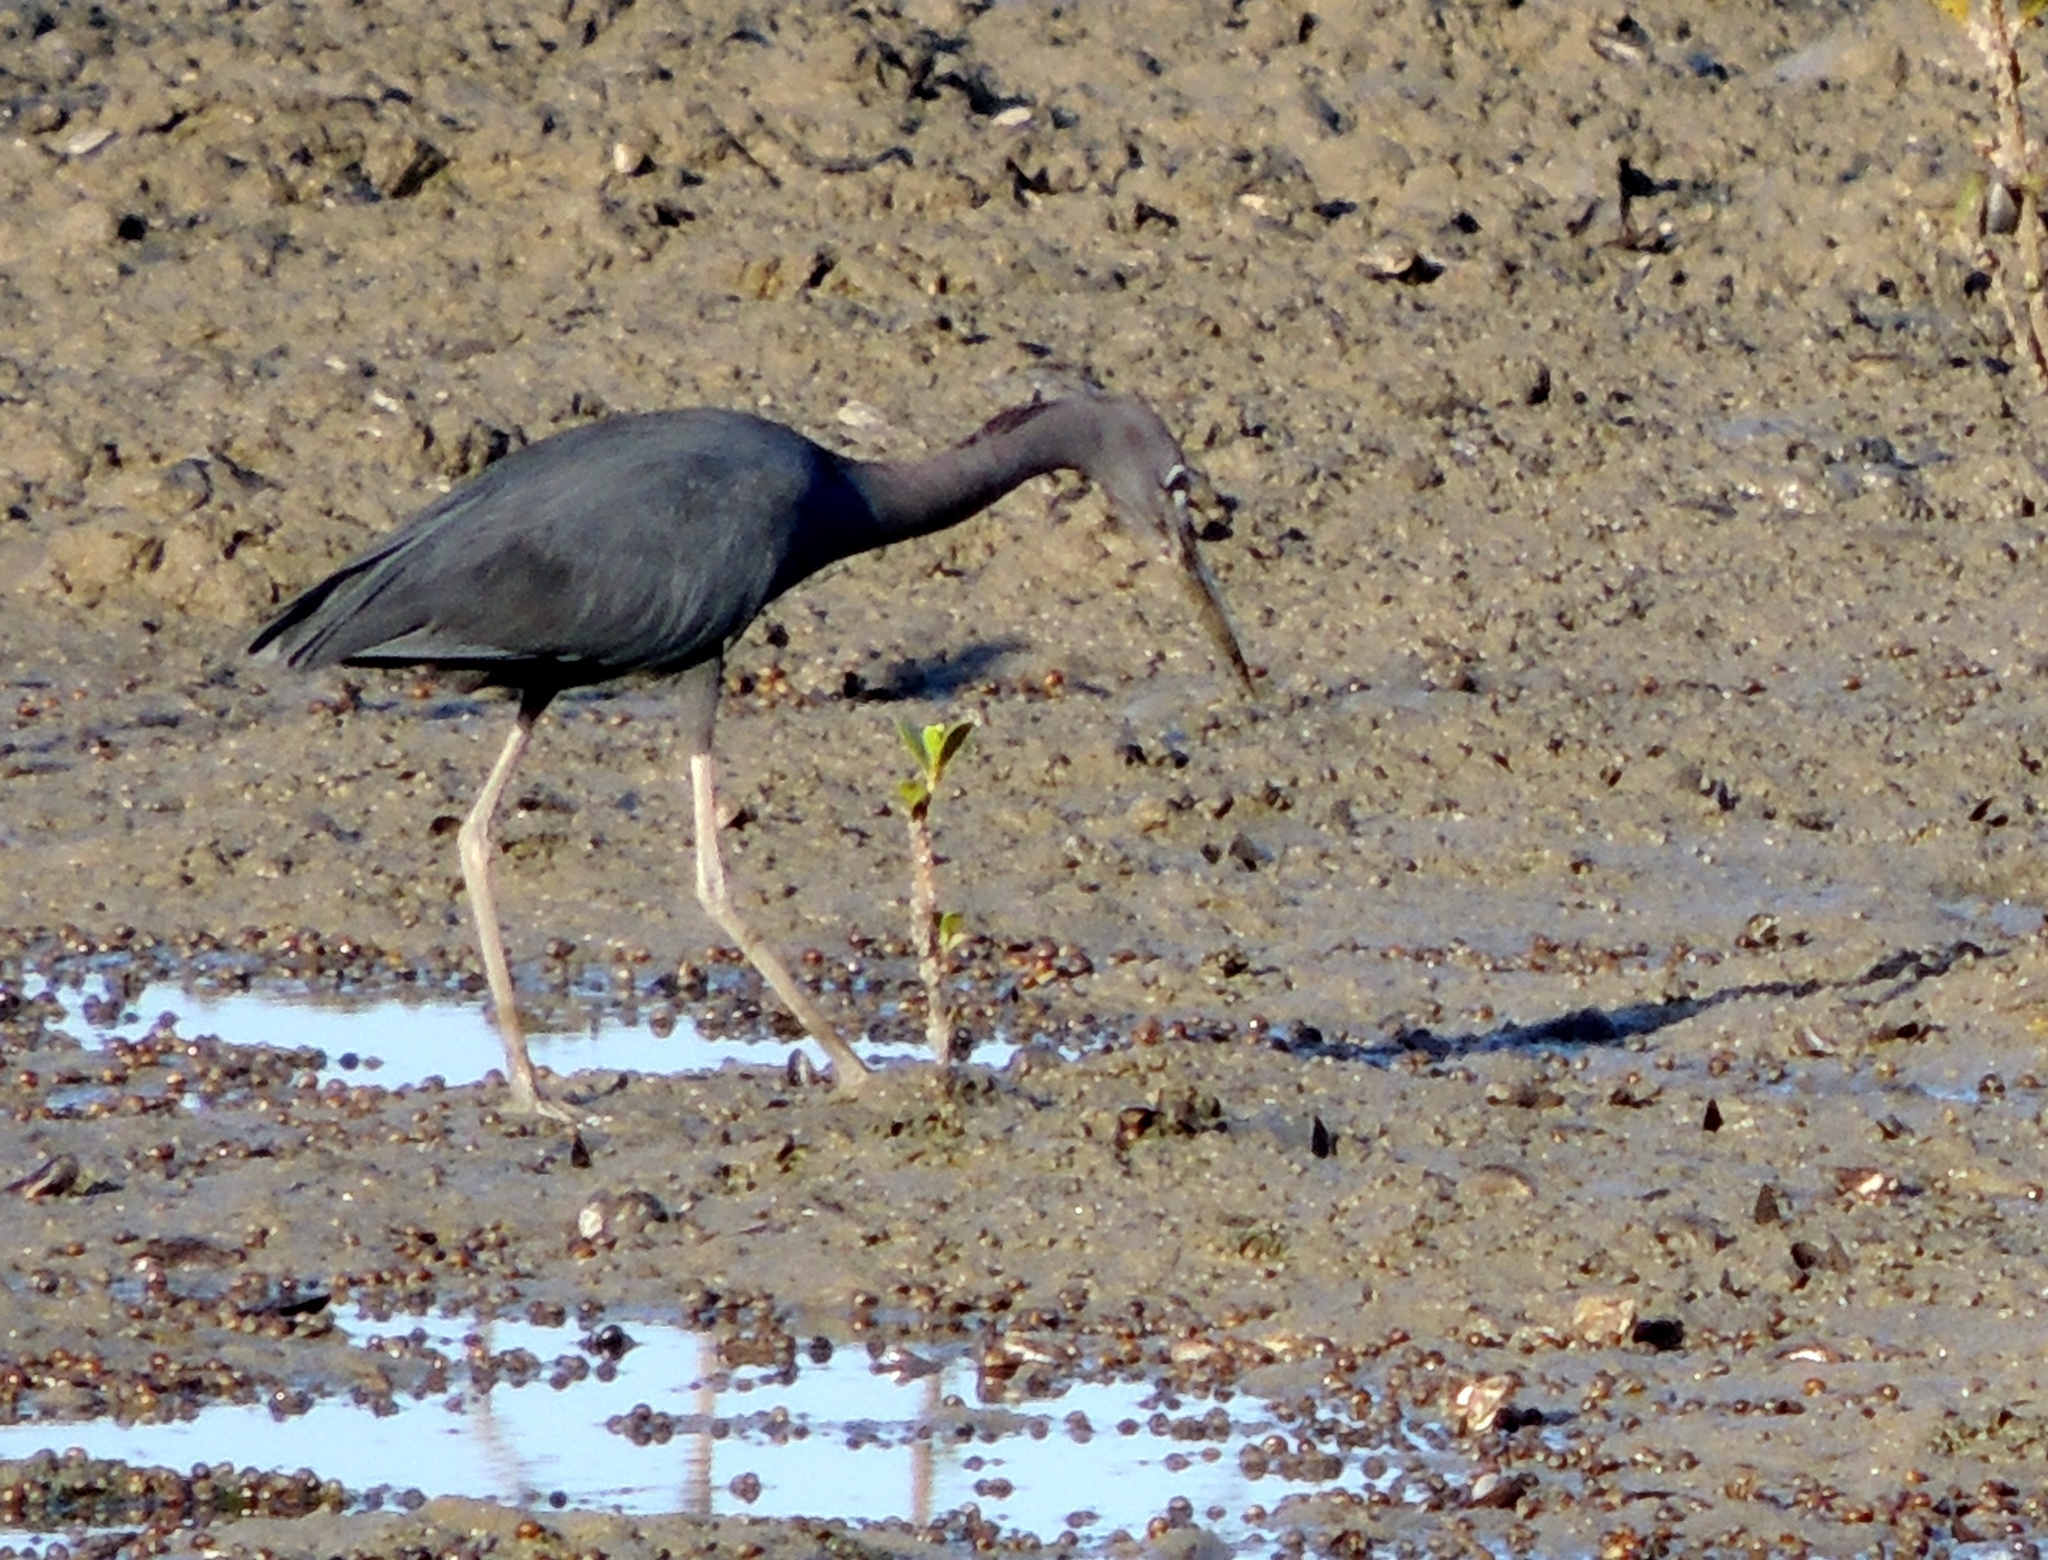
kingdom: Animalia
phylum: Chordata
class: Aves
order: Pelecaniformes
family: Ardeidae
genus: Egretta
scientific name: Egretta caerulea
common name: Little blue heron
